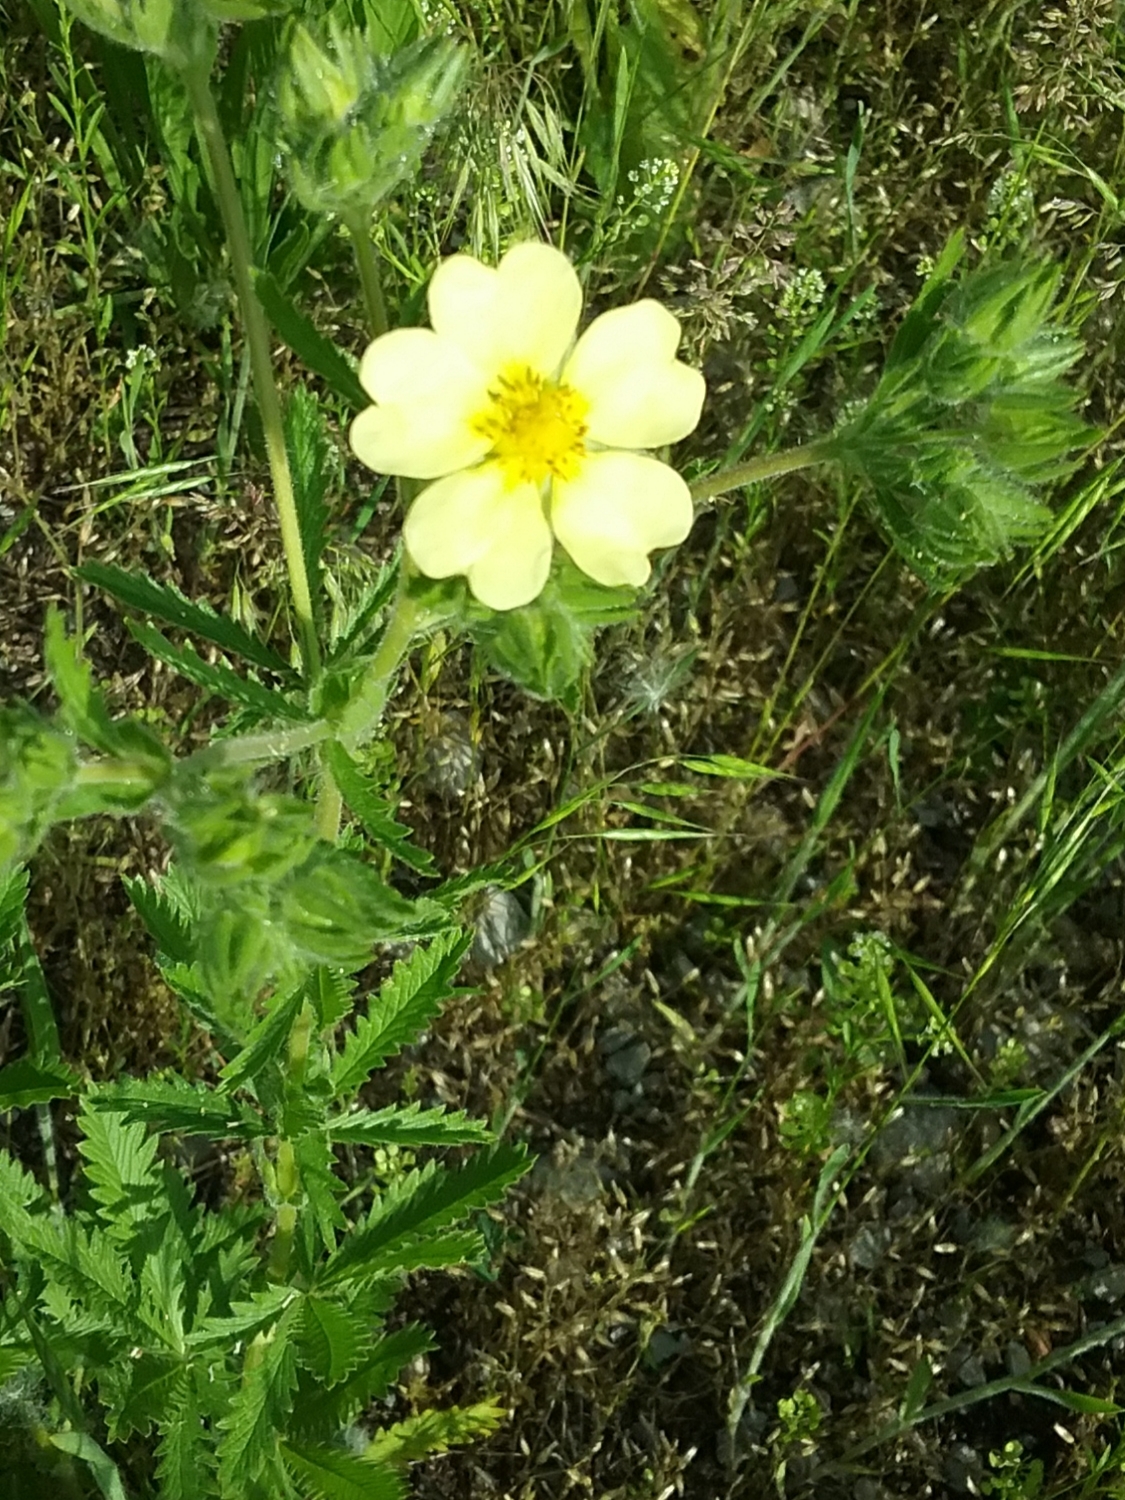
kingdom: Plantae
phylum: Tracheophyta
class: Magnoliopsida
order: Rosales
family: Rosaceae
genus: Potentilla
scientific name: Potentilla recta
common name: Sulphur cinquefoil
